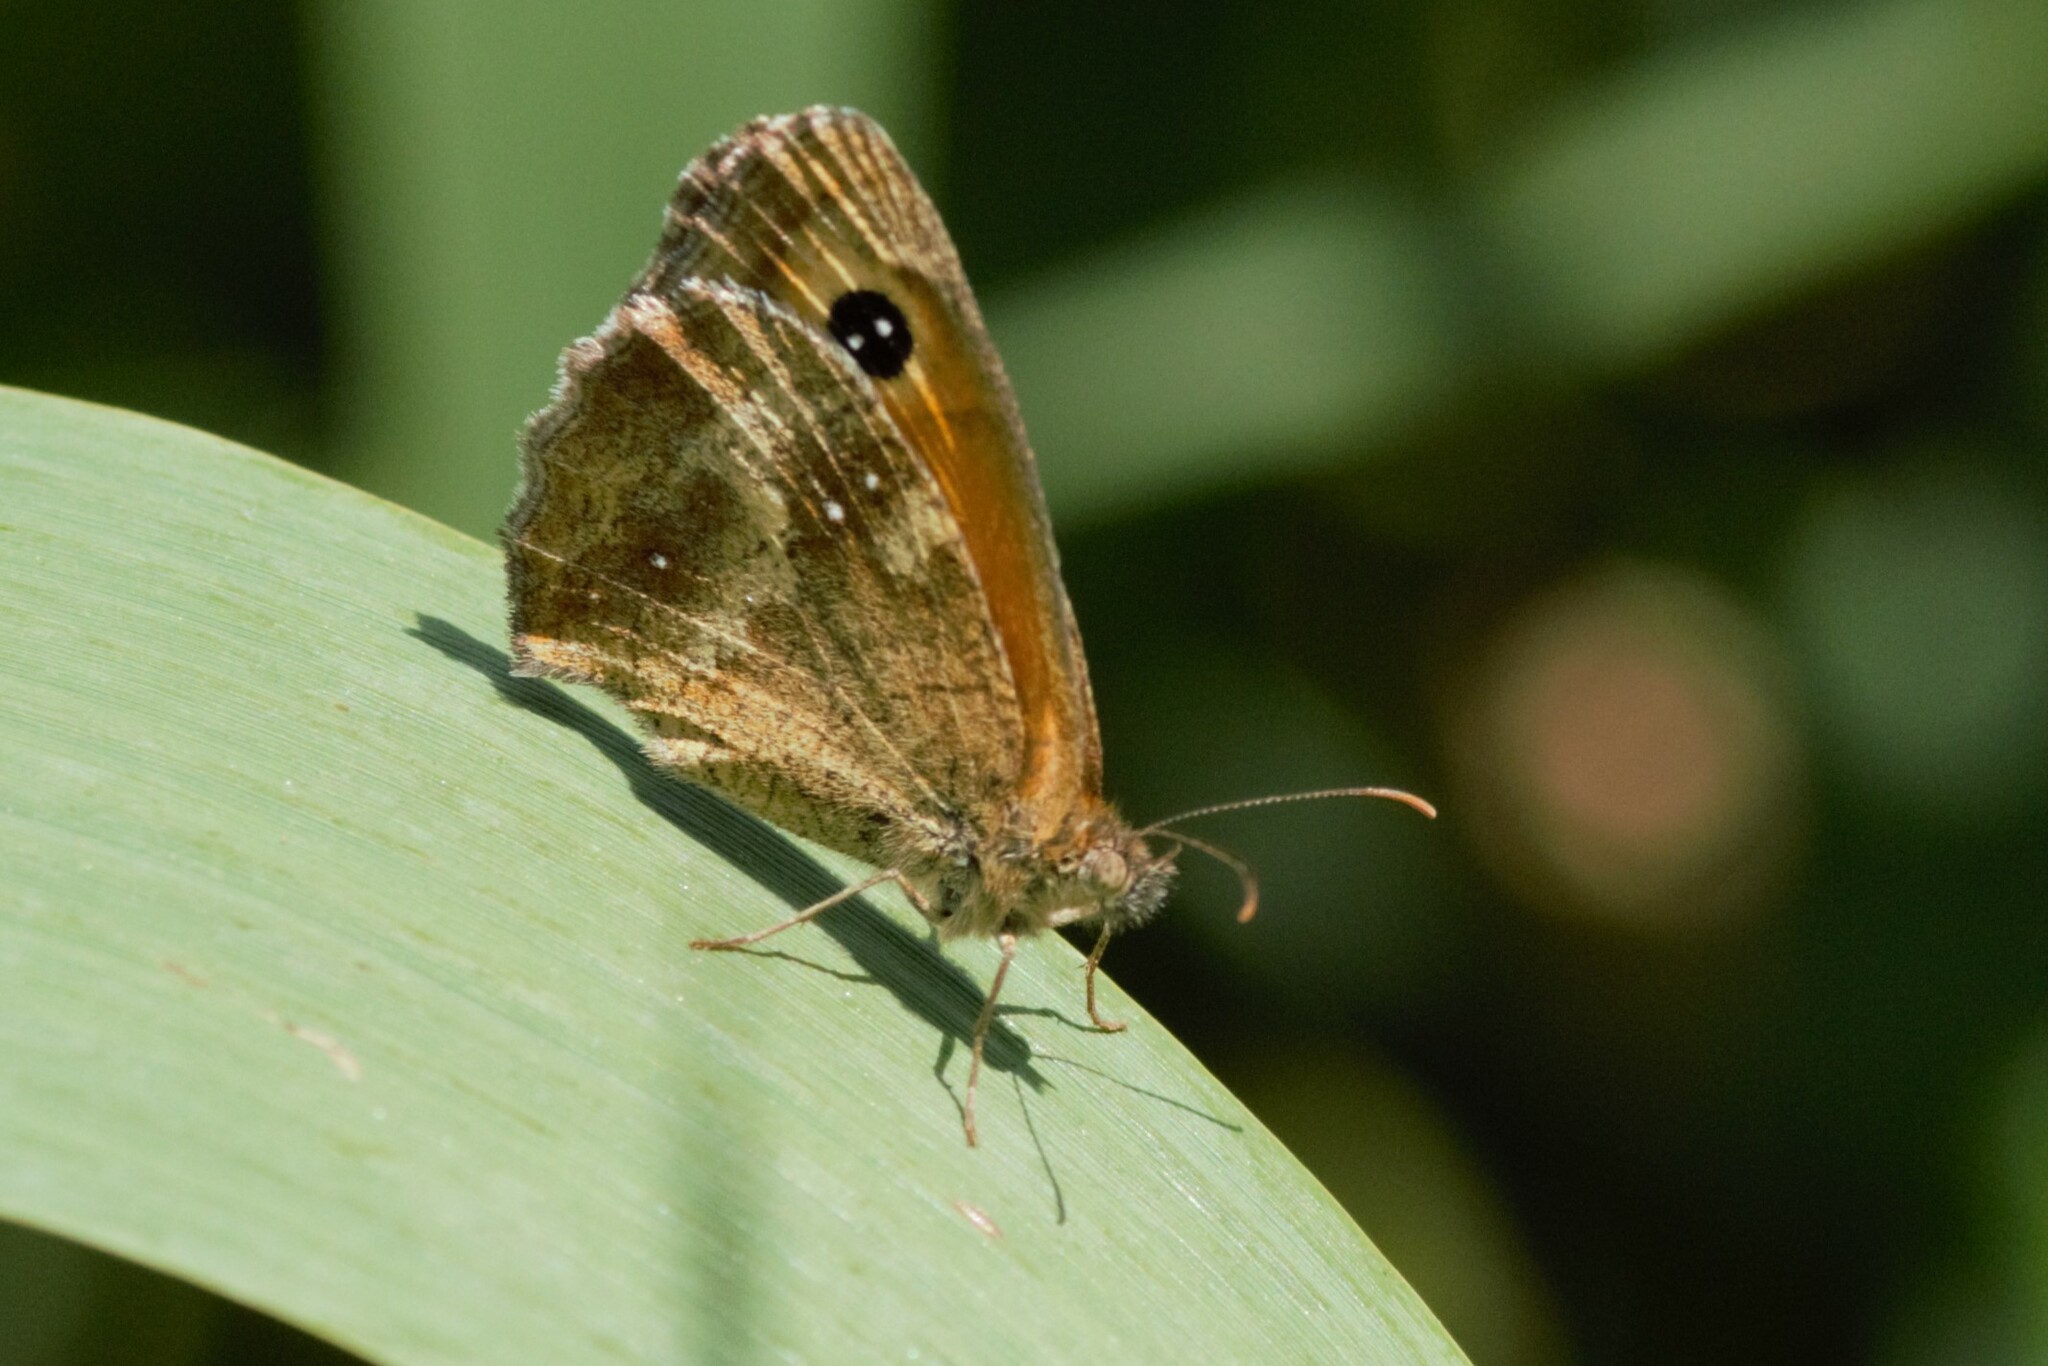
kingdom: Animalia
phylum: Arthropoda
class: Insecta
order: Lepidoptera
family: Nymphalidae
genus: Pyronia
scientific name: Pyronia tithonus
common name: Gatekeeper
